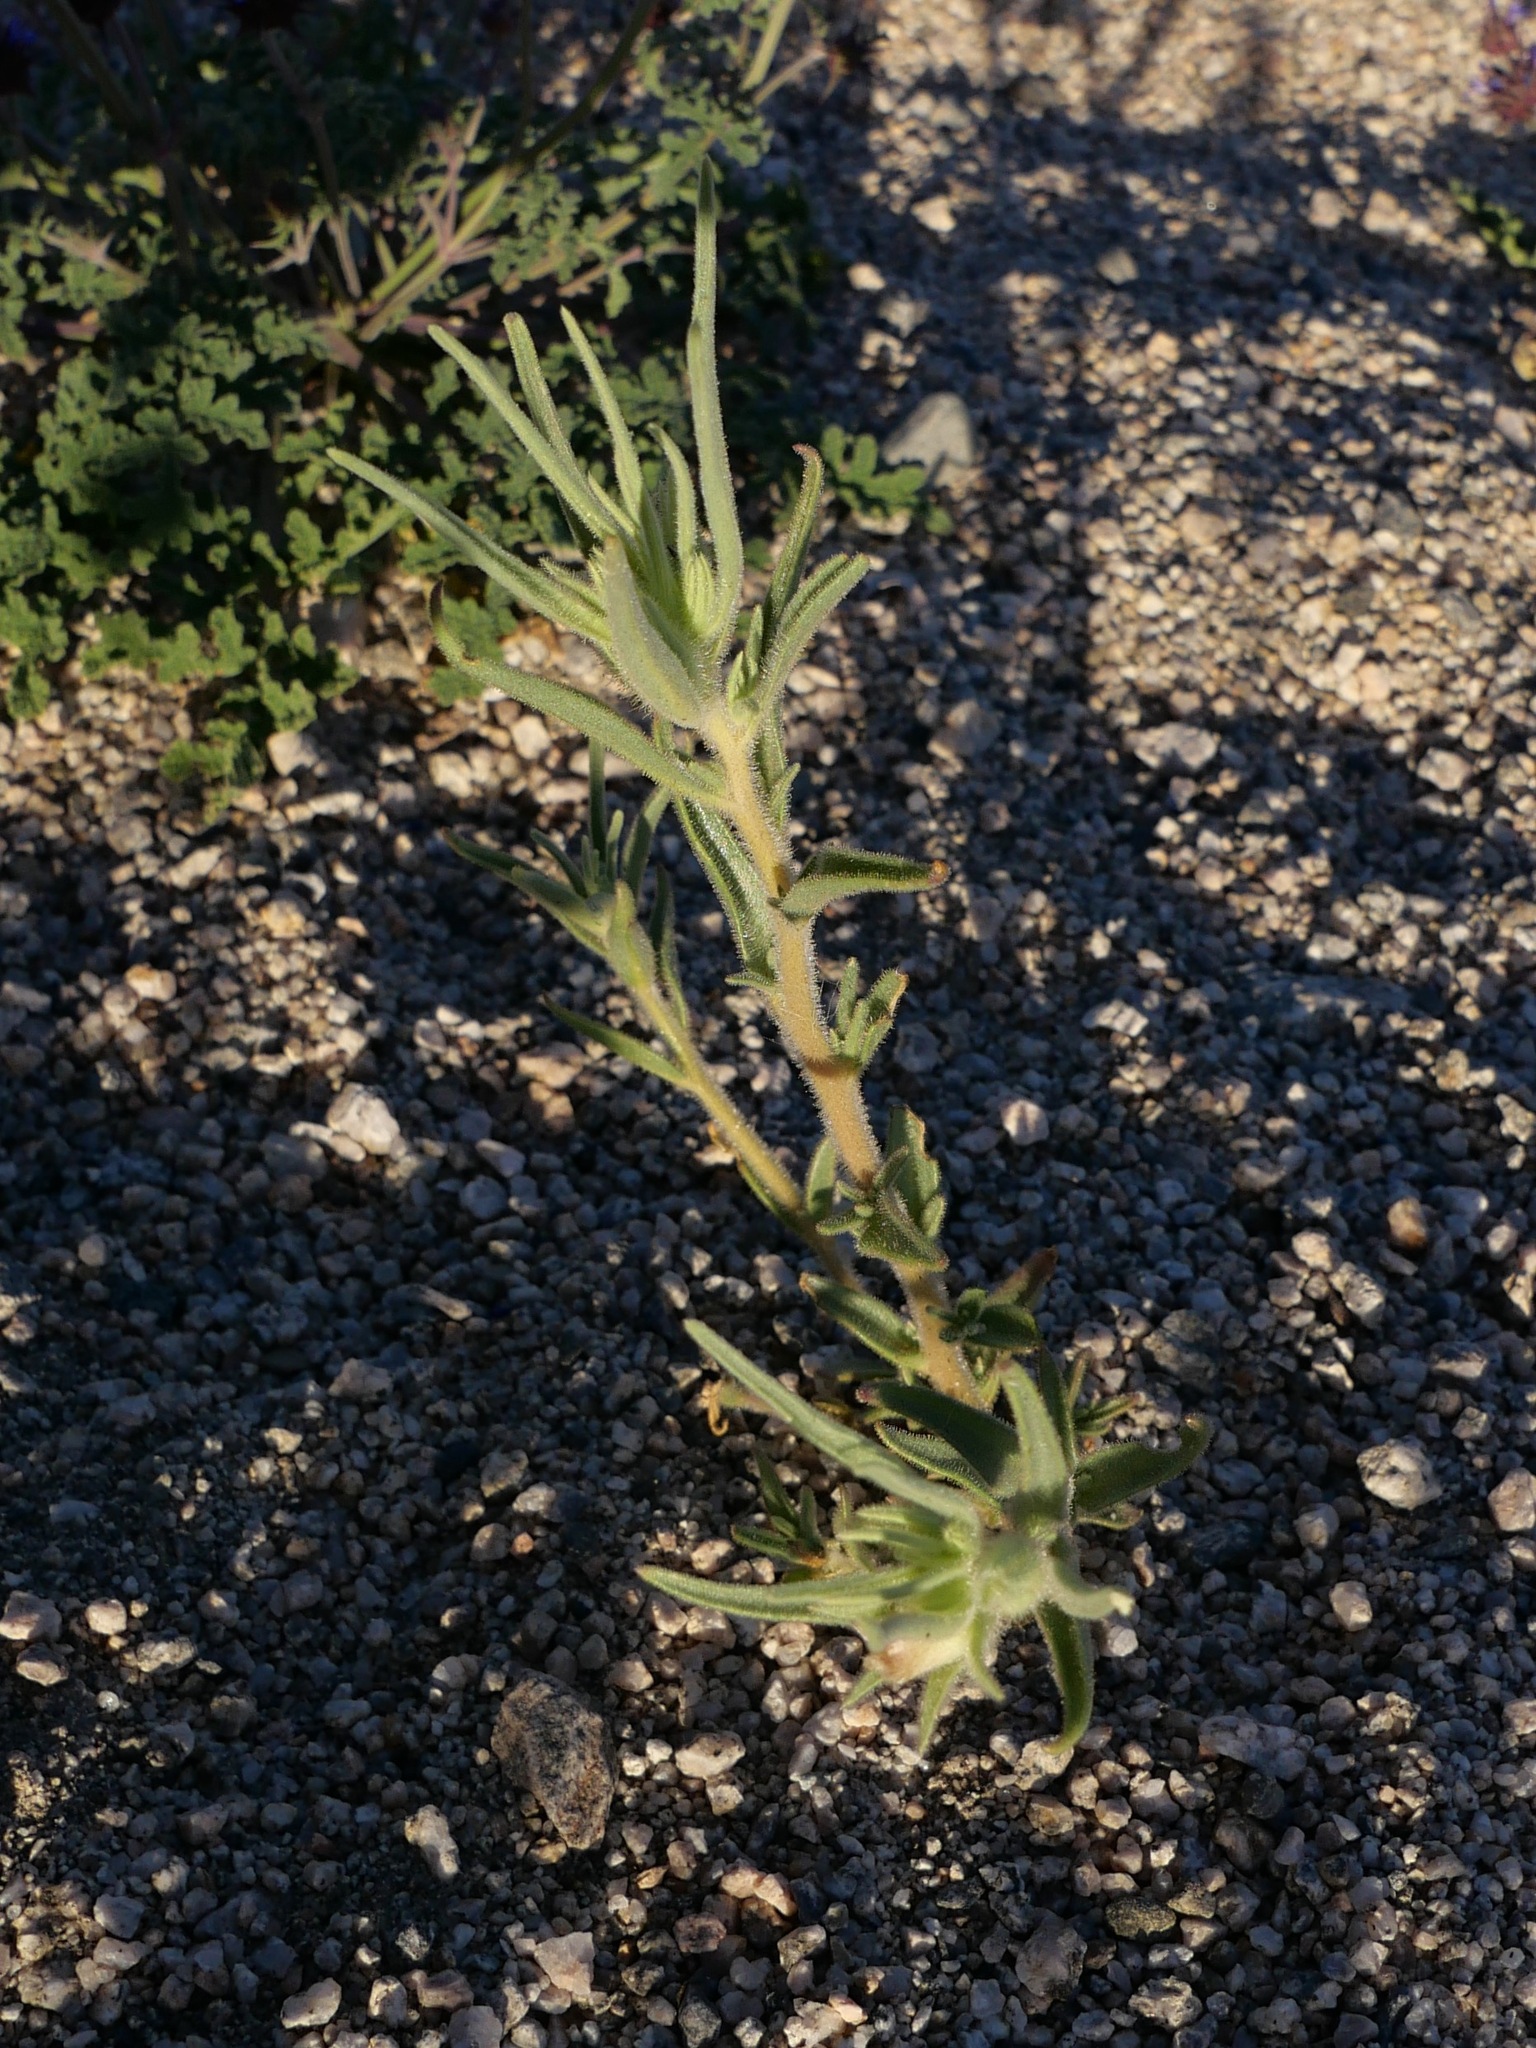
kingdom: Plantae
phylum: Tracheophyta
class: Magnoliopsida
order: Lamiales
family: Plantaginaceae
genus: Mohavea
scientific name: Mohavea confertiflora
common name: Ghost flower
